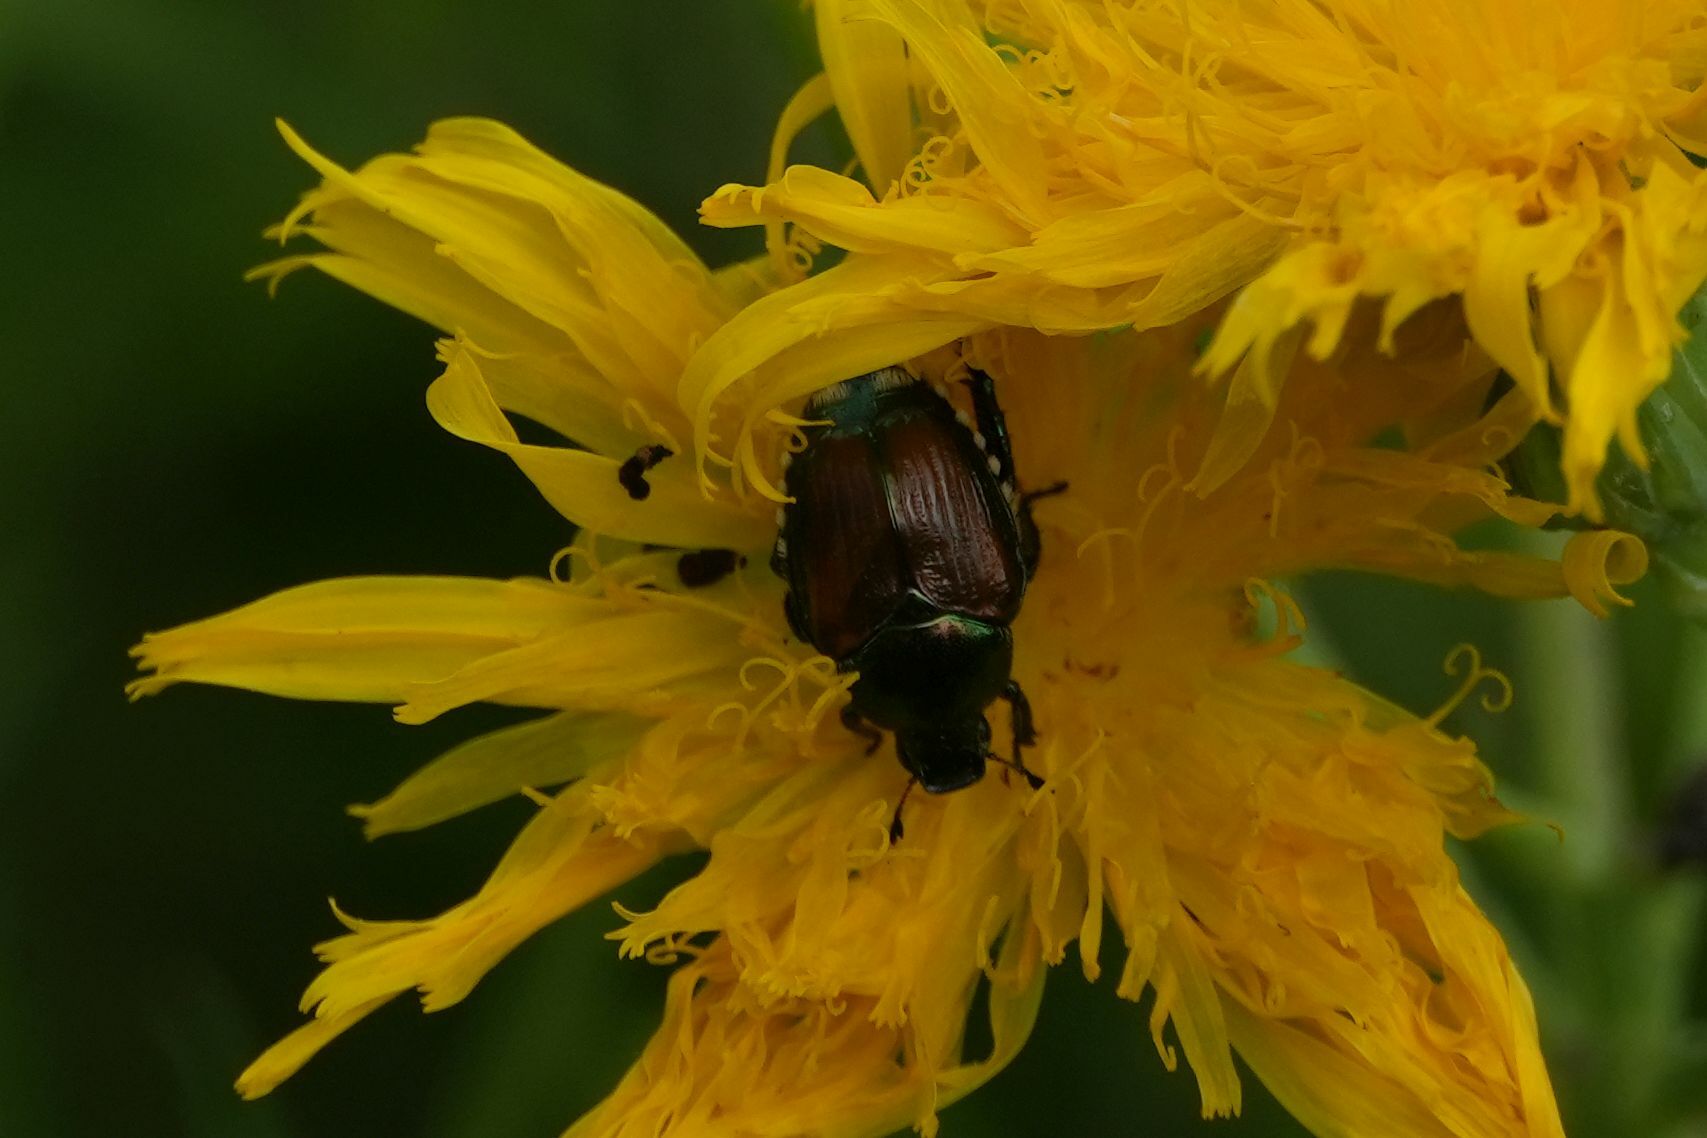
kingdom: Animalia
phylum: Arthropoda
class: Insecta
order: Coleoptera
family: Scarabaeidae
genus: Popillia
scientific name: Popillia japonica
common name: Japanese beetle
